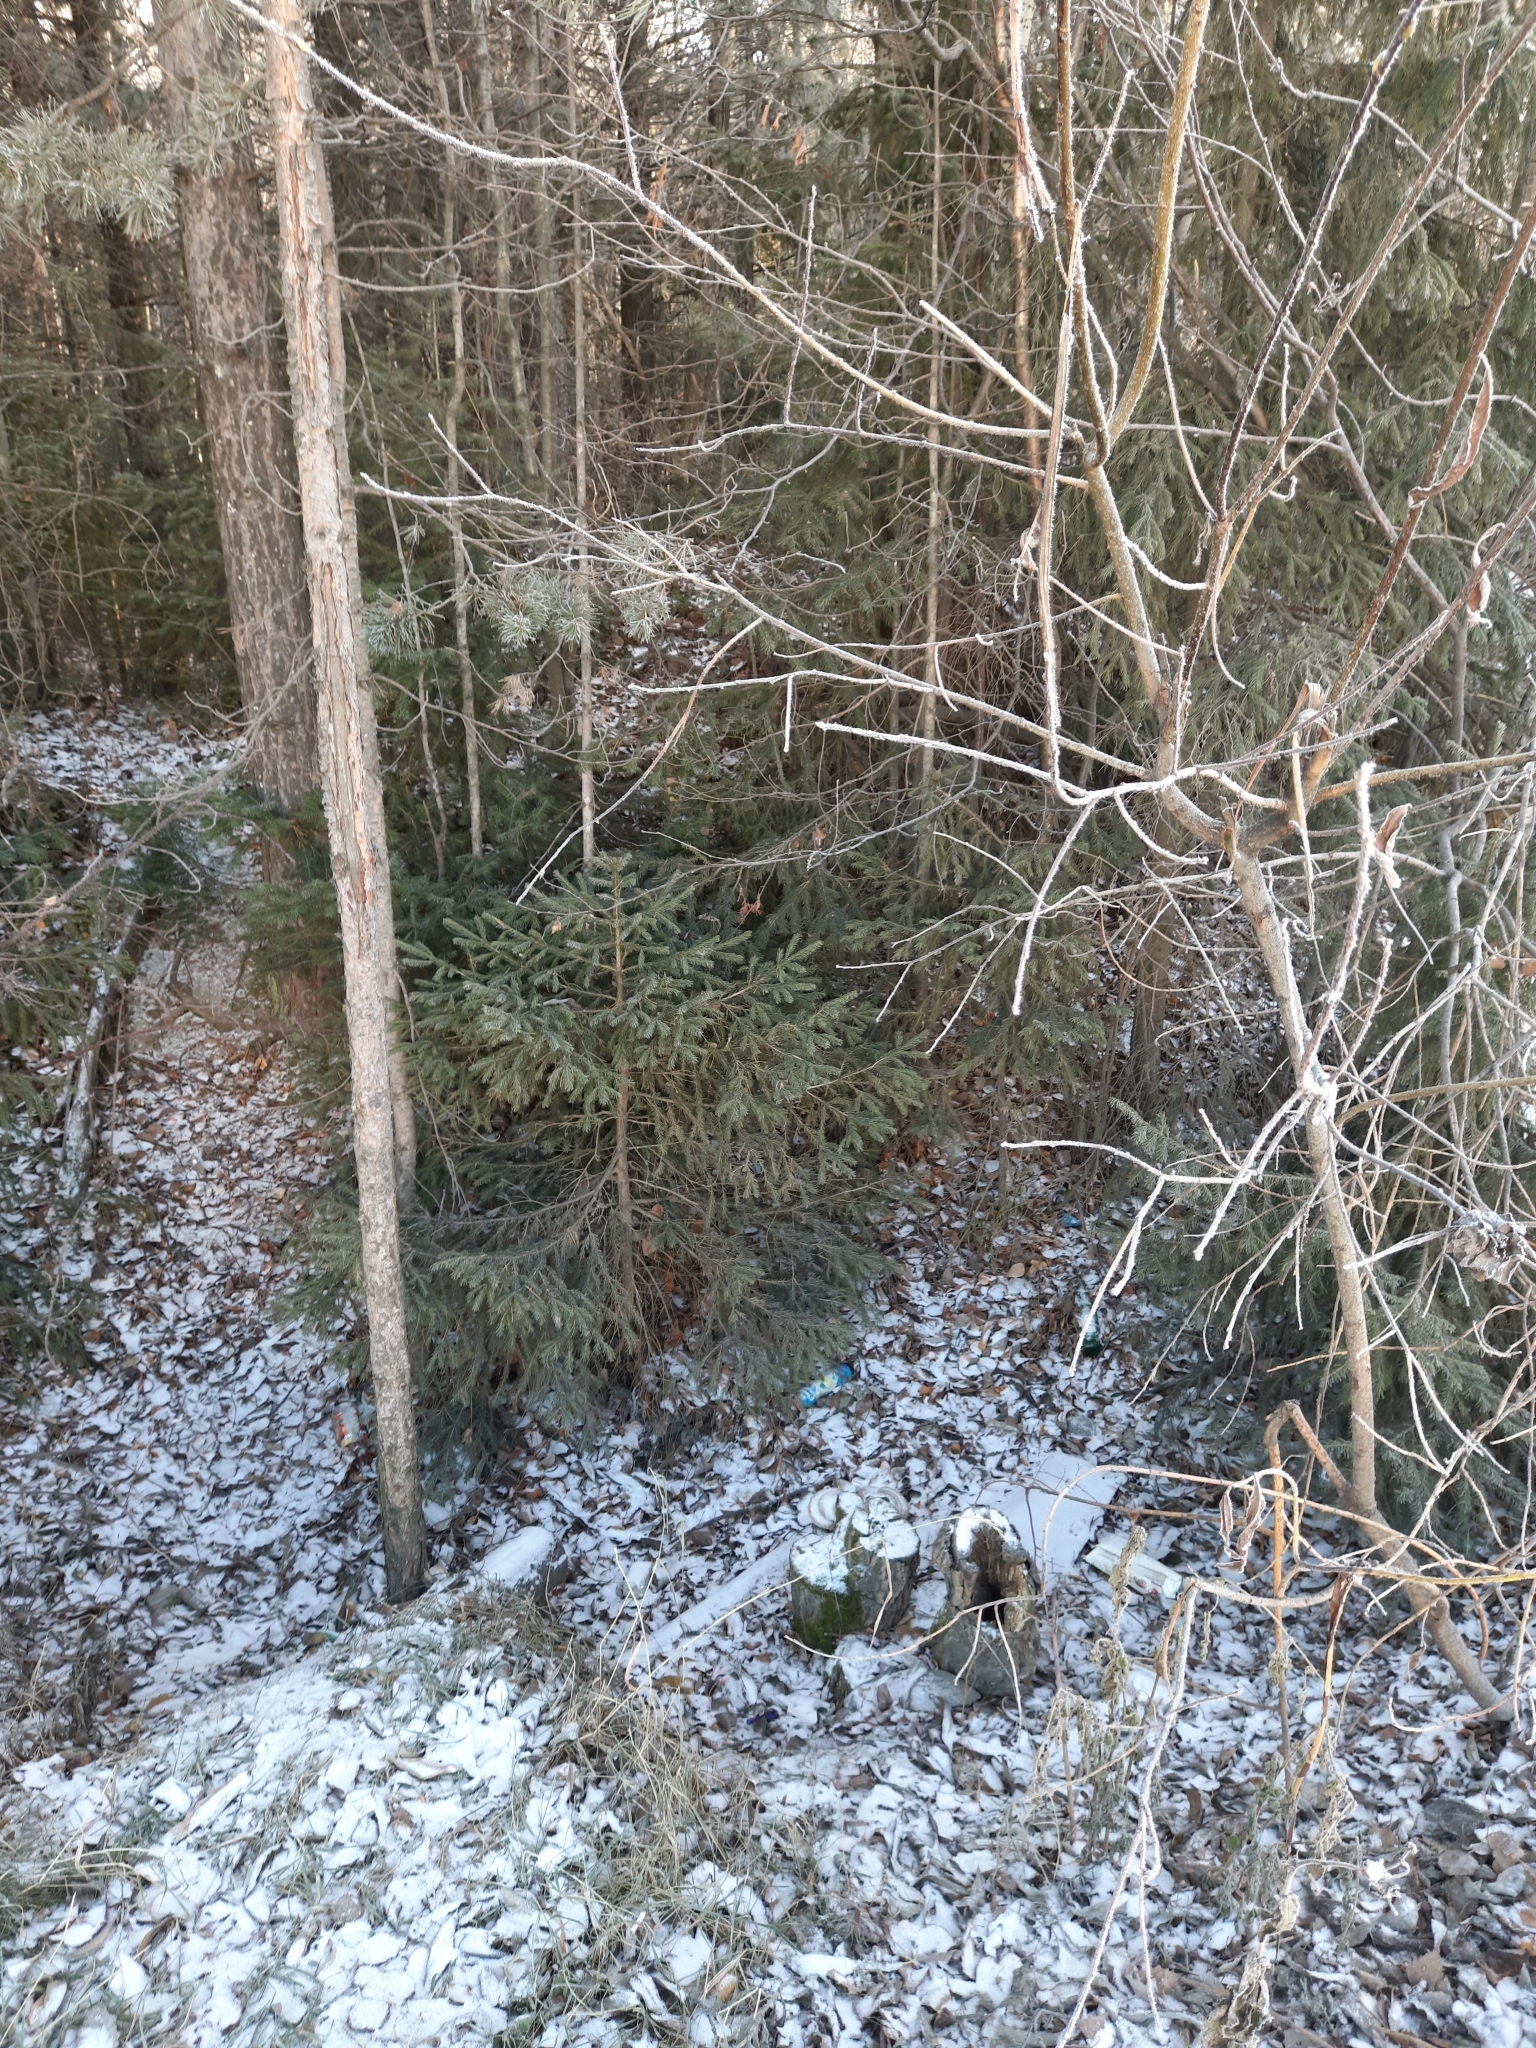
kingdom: Plantae
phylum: Tracheophyta
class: Pinopsida
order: Pinales
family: Pinaceae
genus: Picea
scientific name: Picea obovata
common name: Siberian spruce
